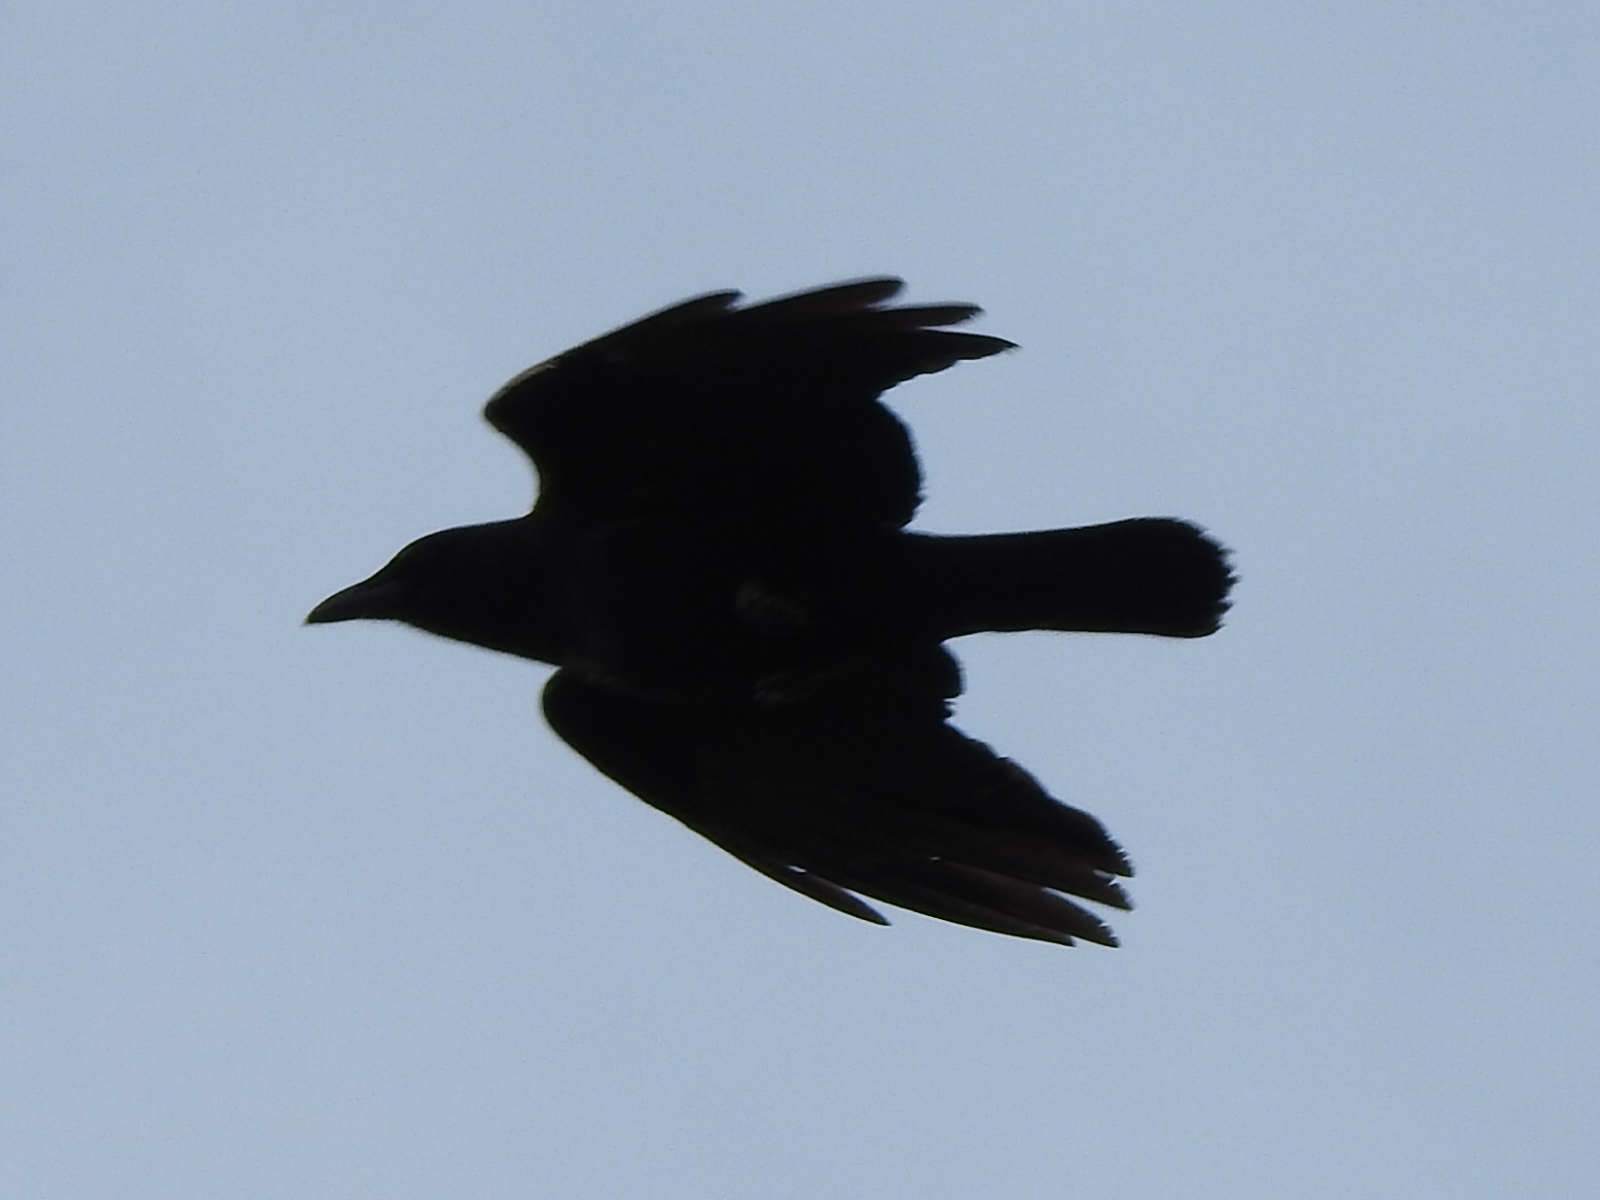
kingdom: Animalia
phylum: Chordata
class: Aves
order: Passeriformes
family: Corvidae
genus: Corvus
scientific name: Corvus brachyrhynchos
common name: American crow
